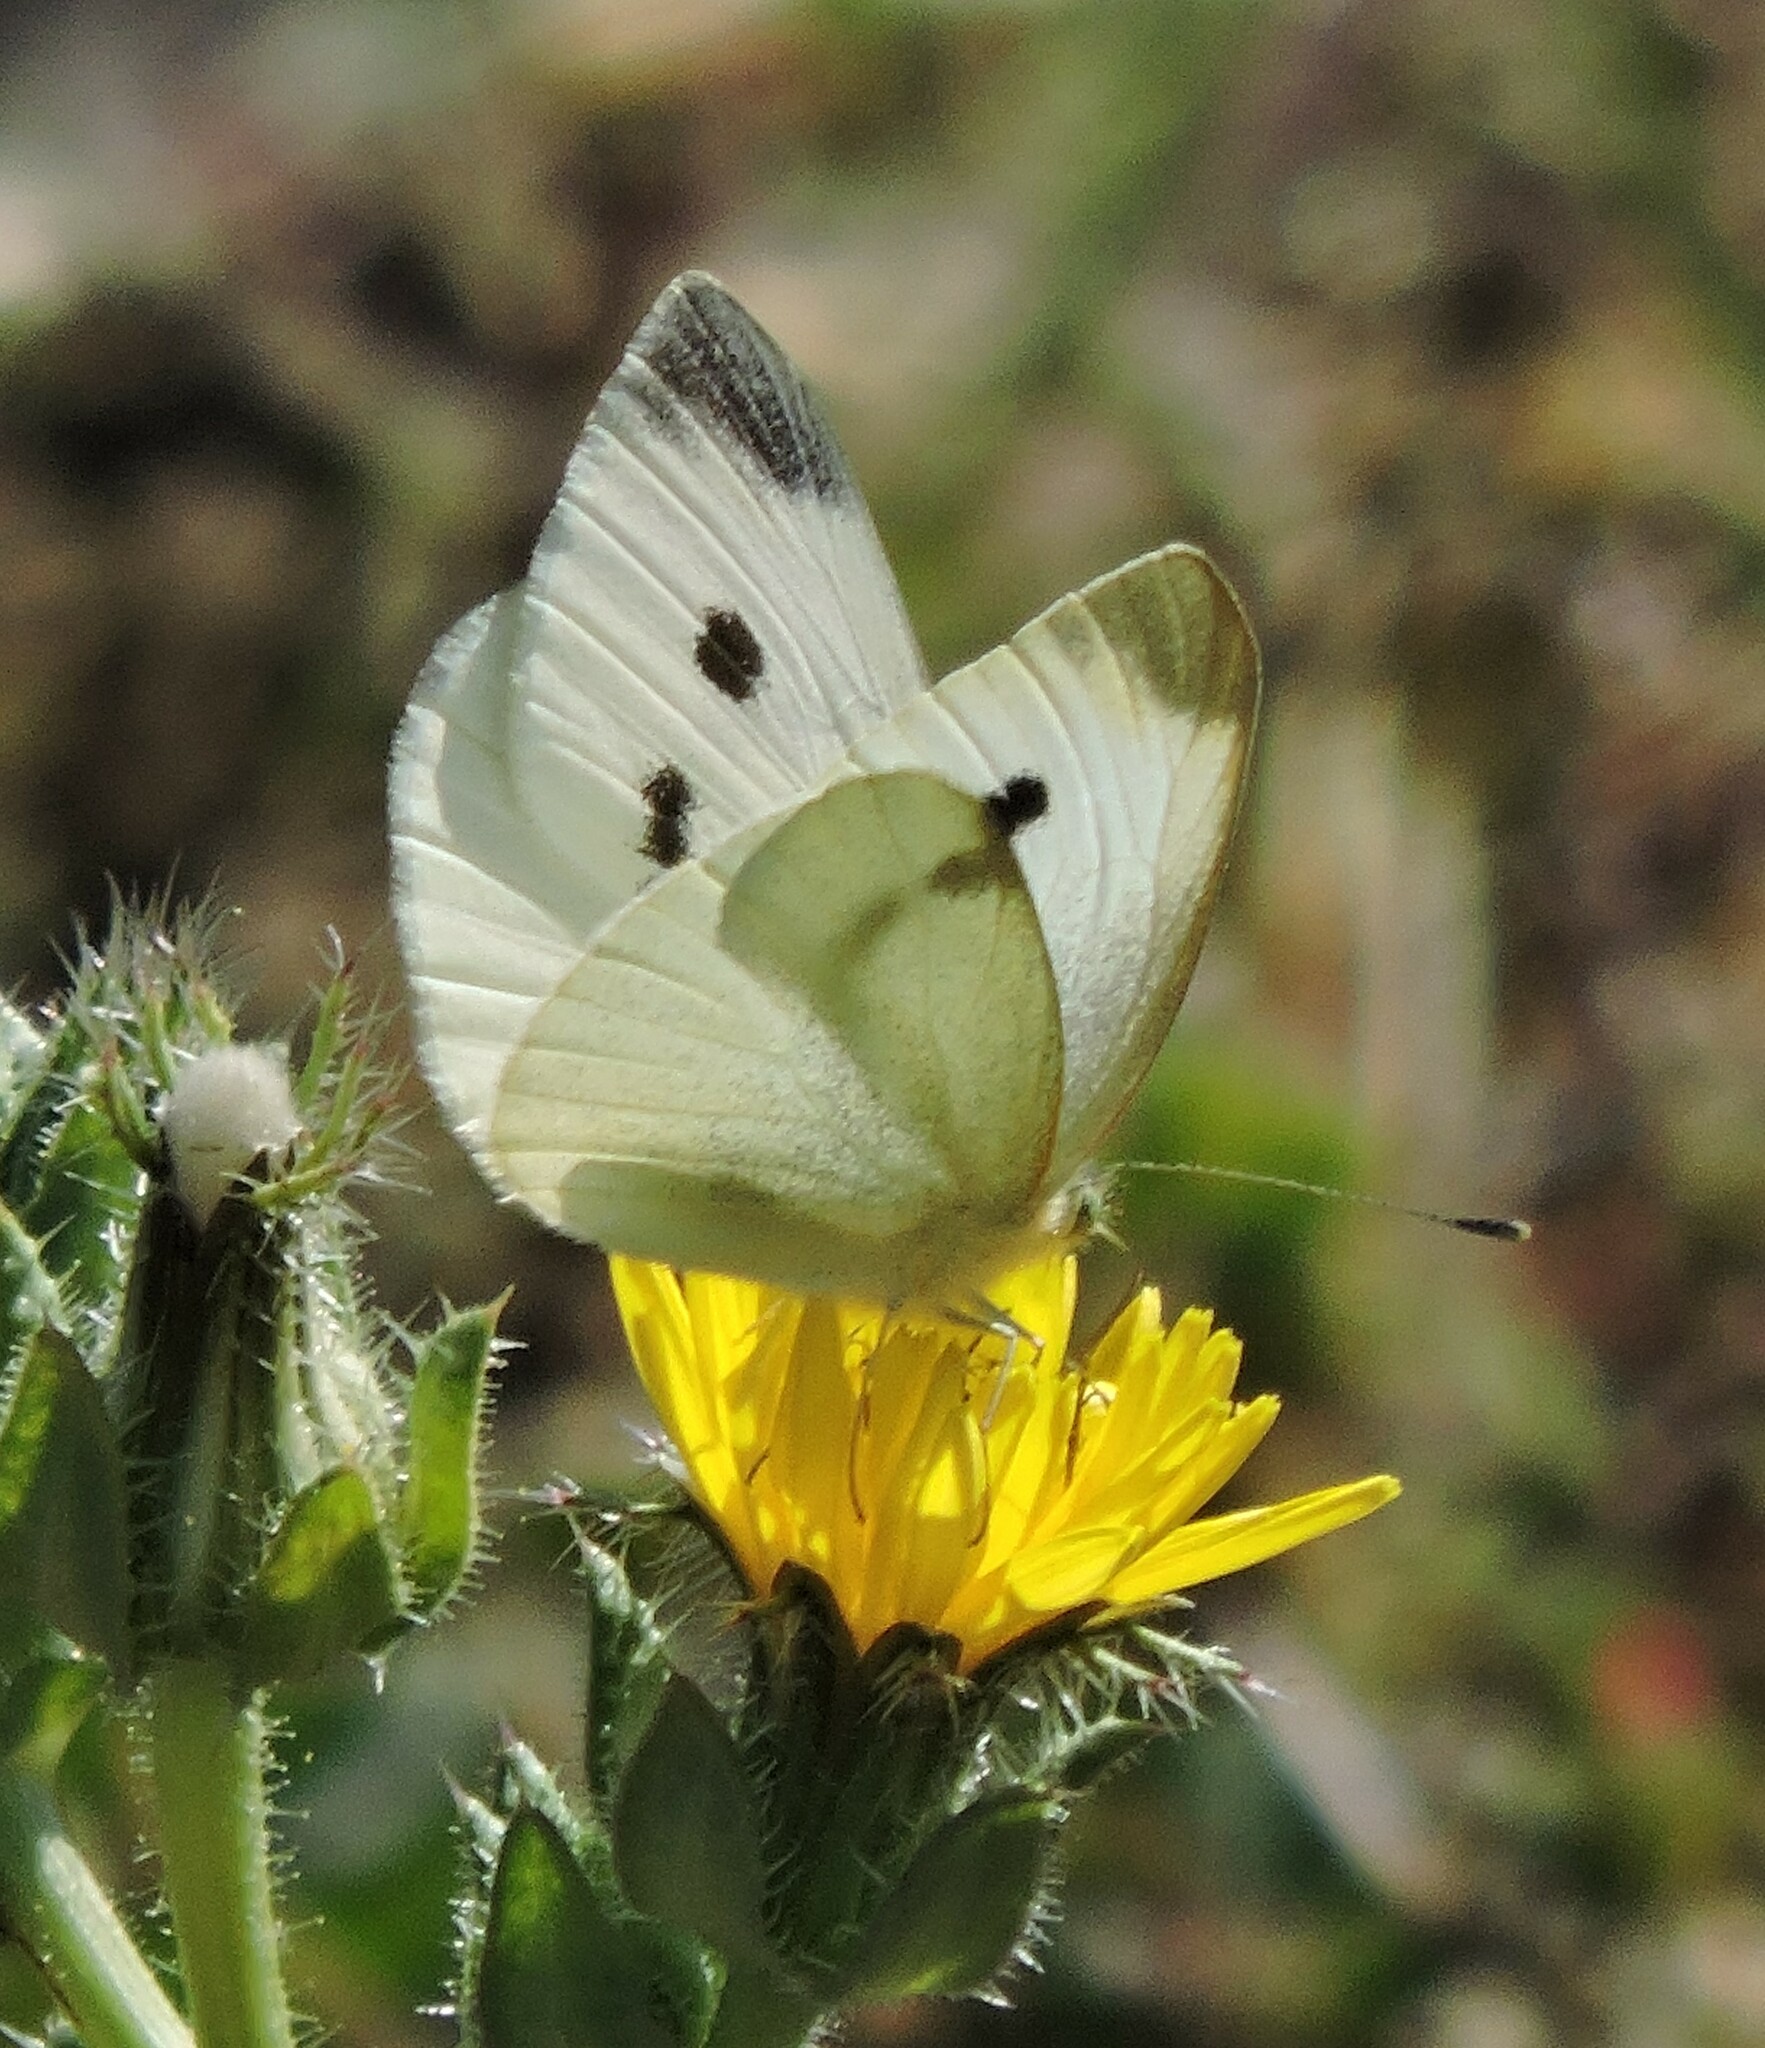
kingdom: Animalia
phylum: Arthropoda
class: Insecta
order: Lepidoptera
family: Pieridae
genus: Pieris
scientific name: Pieris rapae
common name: Small white
